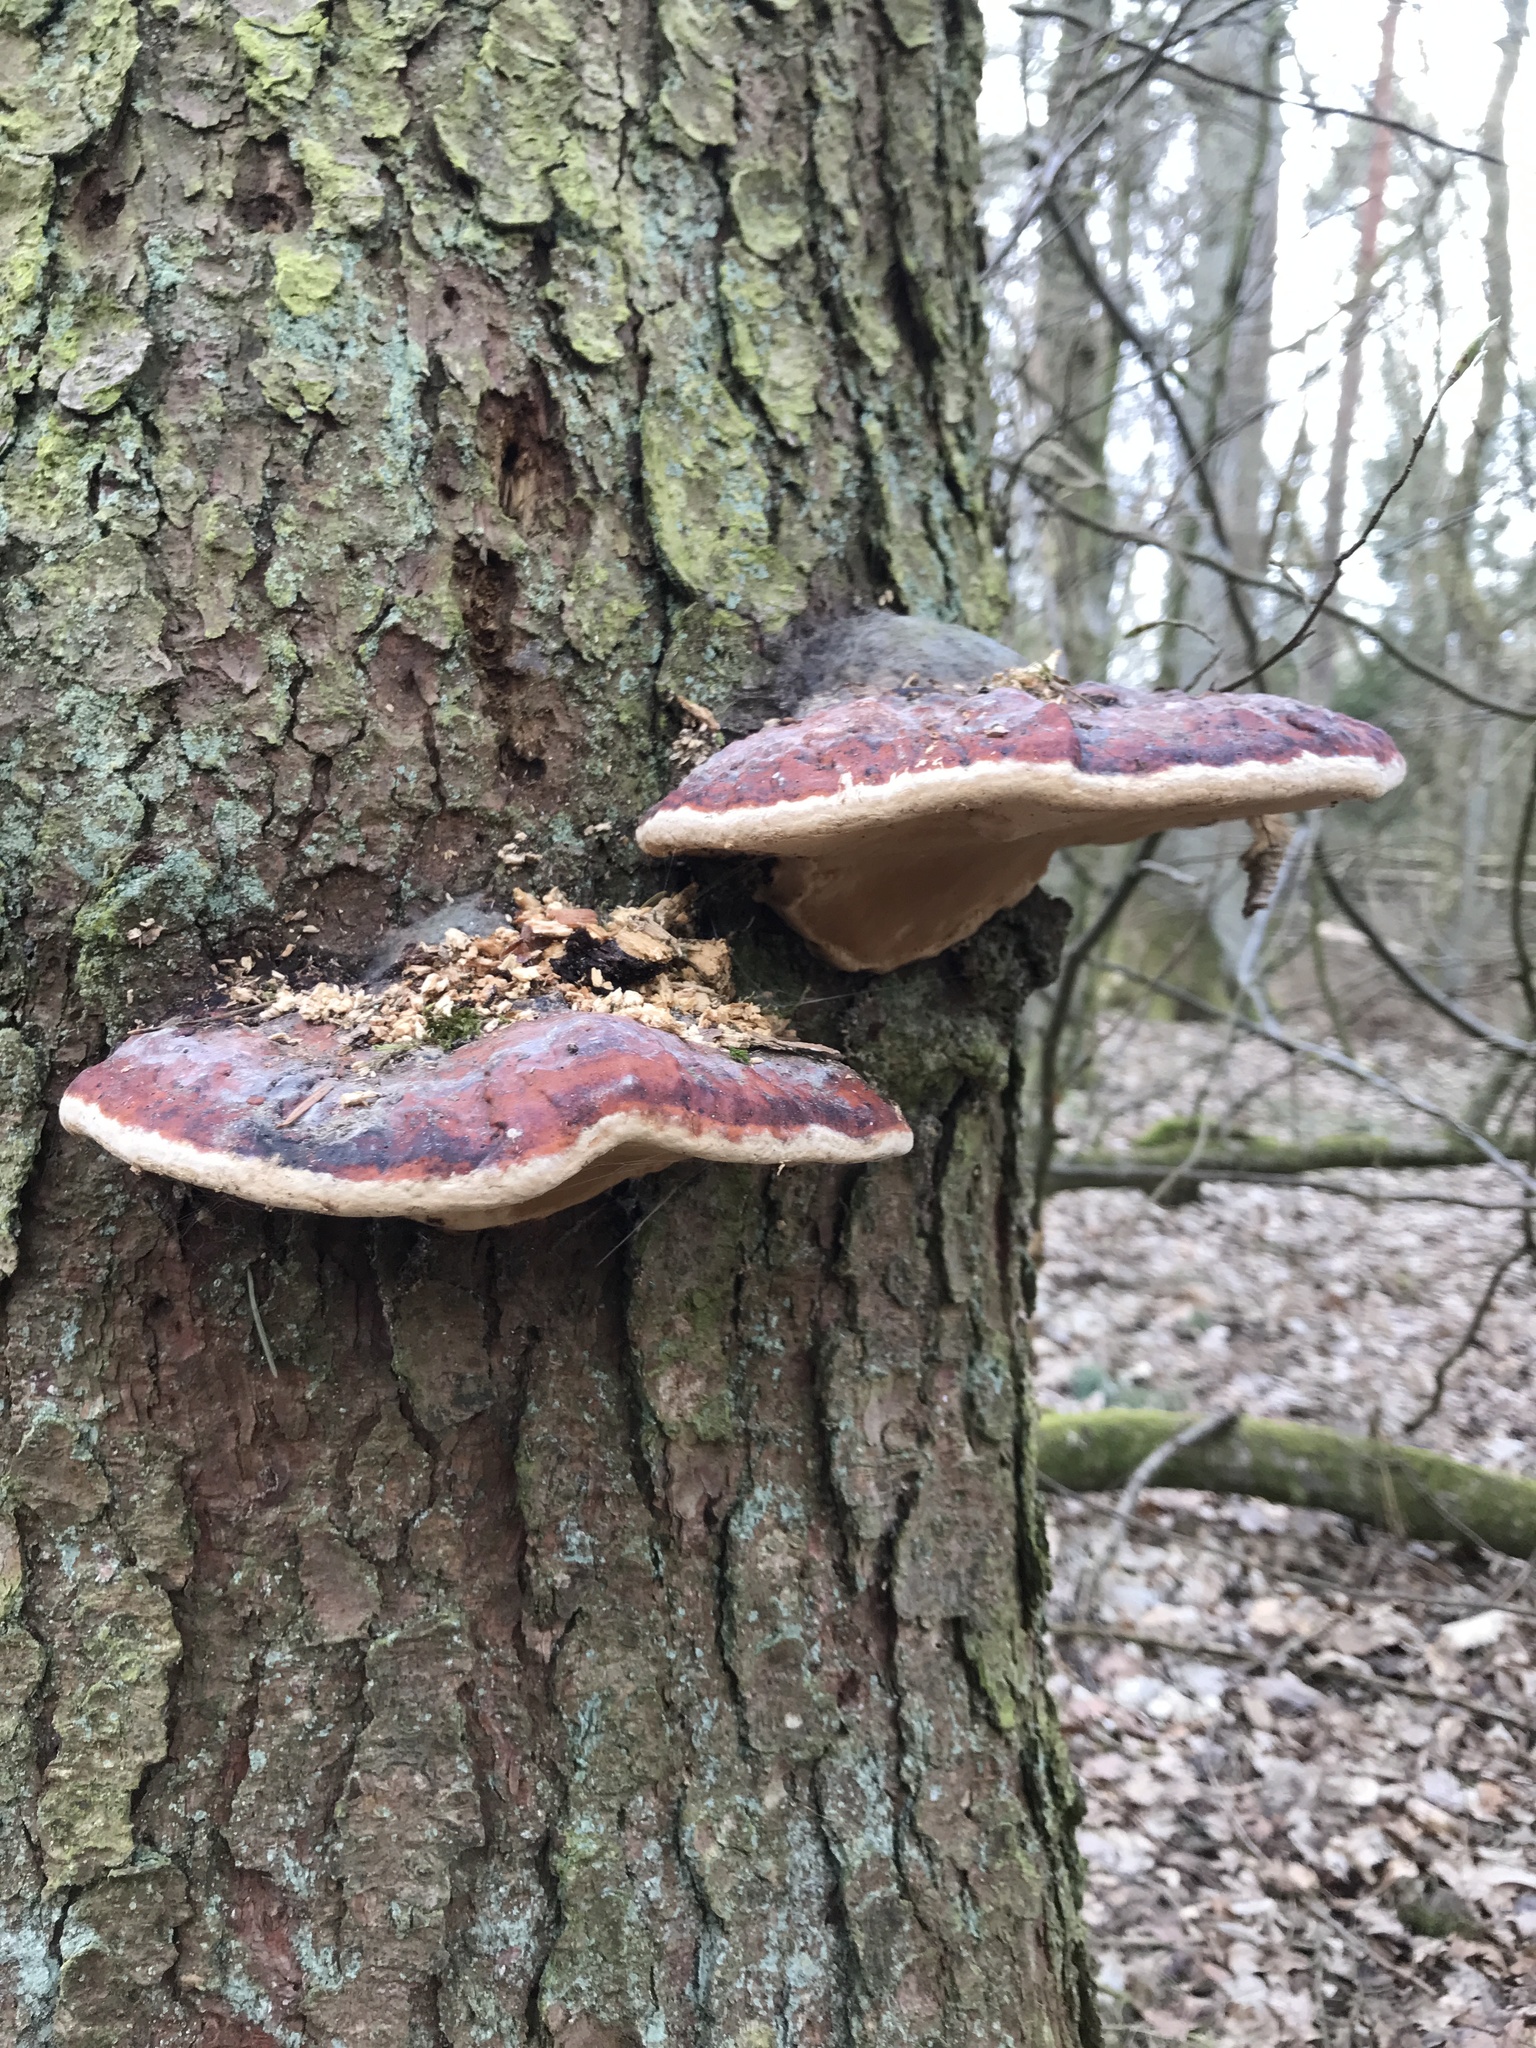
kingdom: Fungi
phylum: Basidiomycota
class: Agaricomycetes
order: Polyporales
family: Fomitopsidaceae
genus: Fomitopsis
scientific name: Fomitopsis pinicola
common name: Red-belted bracket
